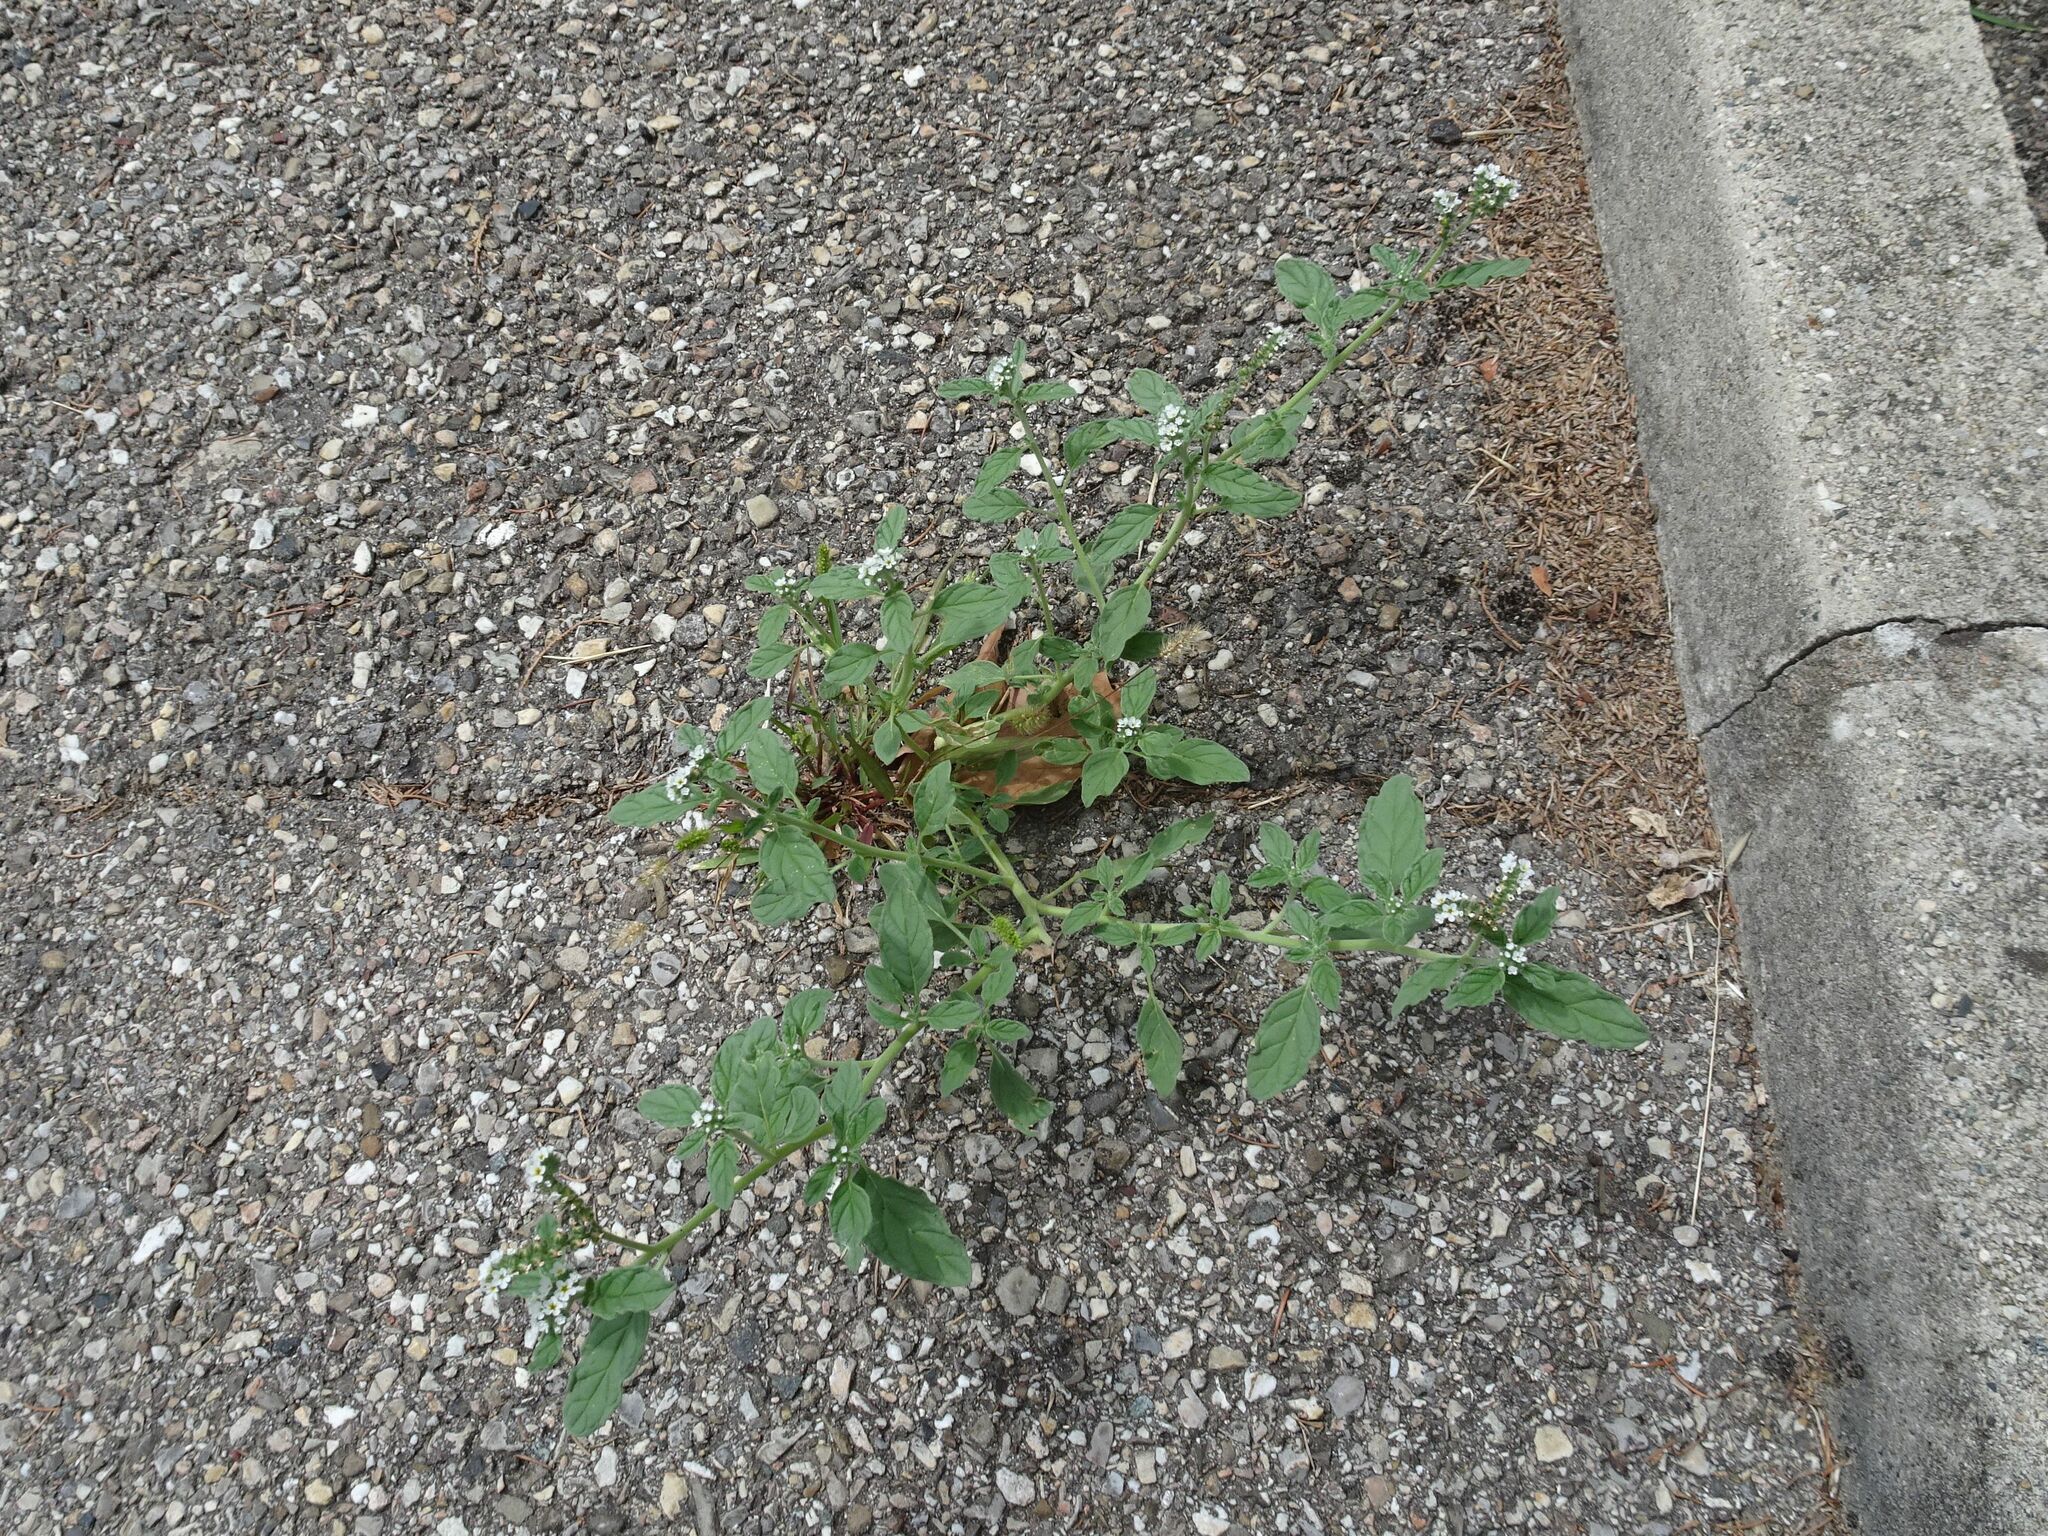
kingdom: Plantae
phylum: Tracheophyta
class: Magnoliopsida
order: Boraginales
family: Heliotropiaceae
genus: Heliotropium
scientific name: Heliotropium europaeum
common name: European heliotrope
